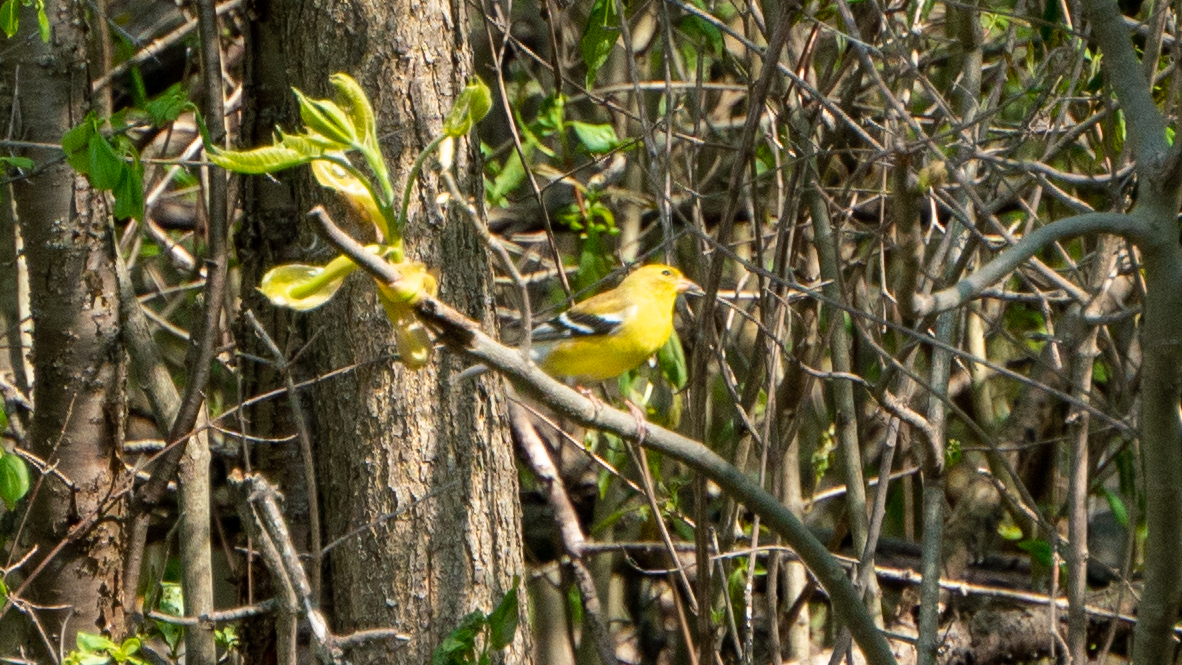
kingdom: Animalia
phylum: Chordata
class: Aves
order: Passeriformes
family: Fringillidae
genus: Spinus
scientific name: Spinus tristis
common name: American goldfinch
